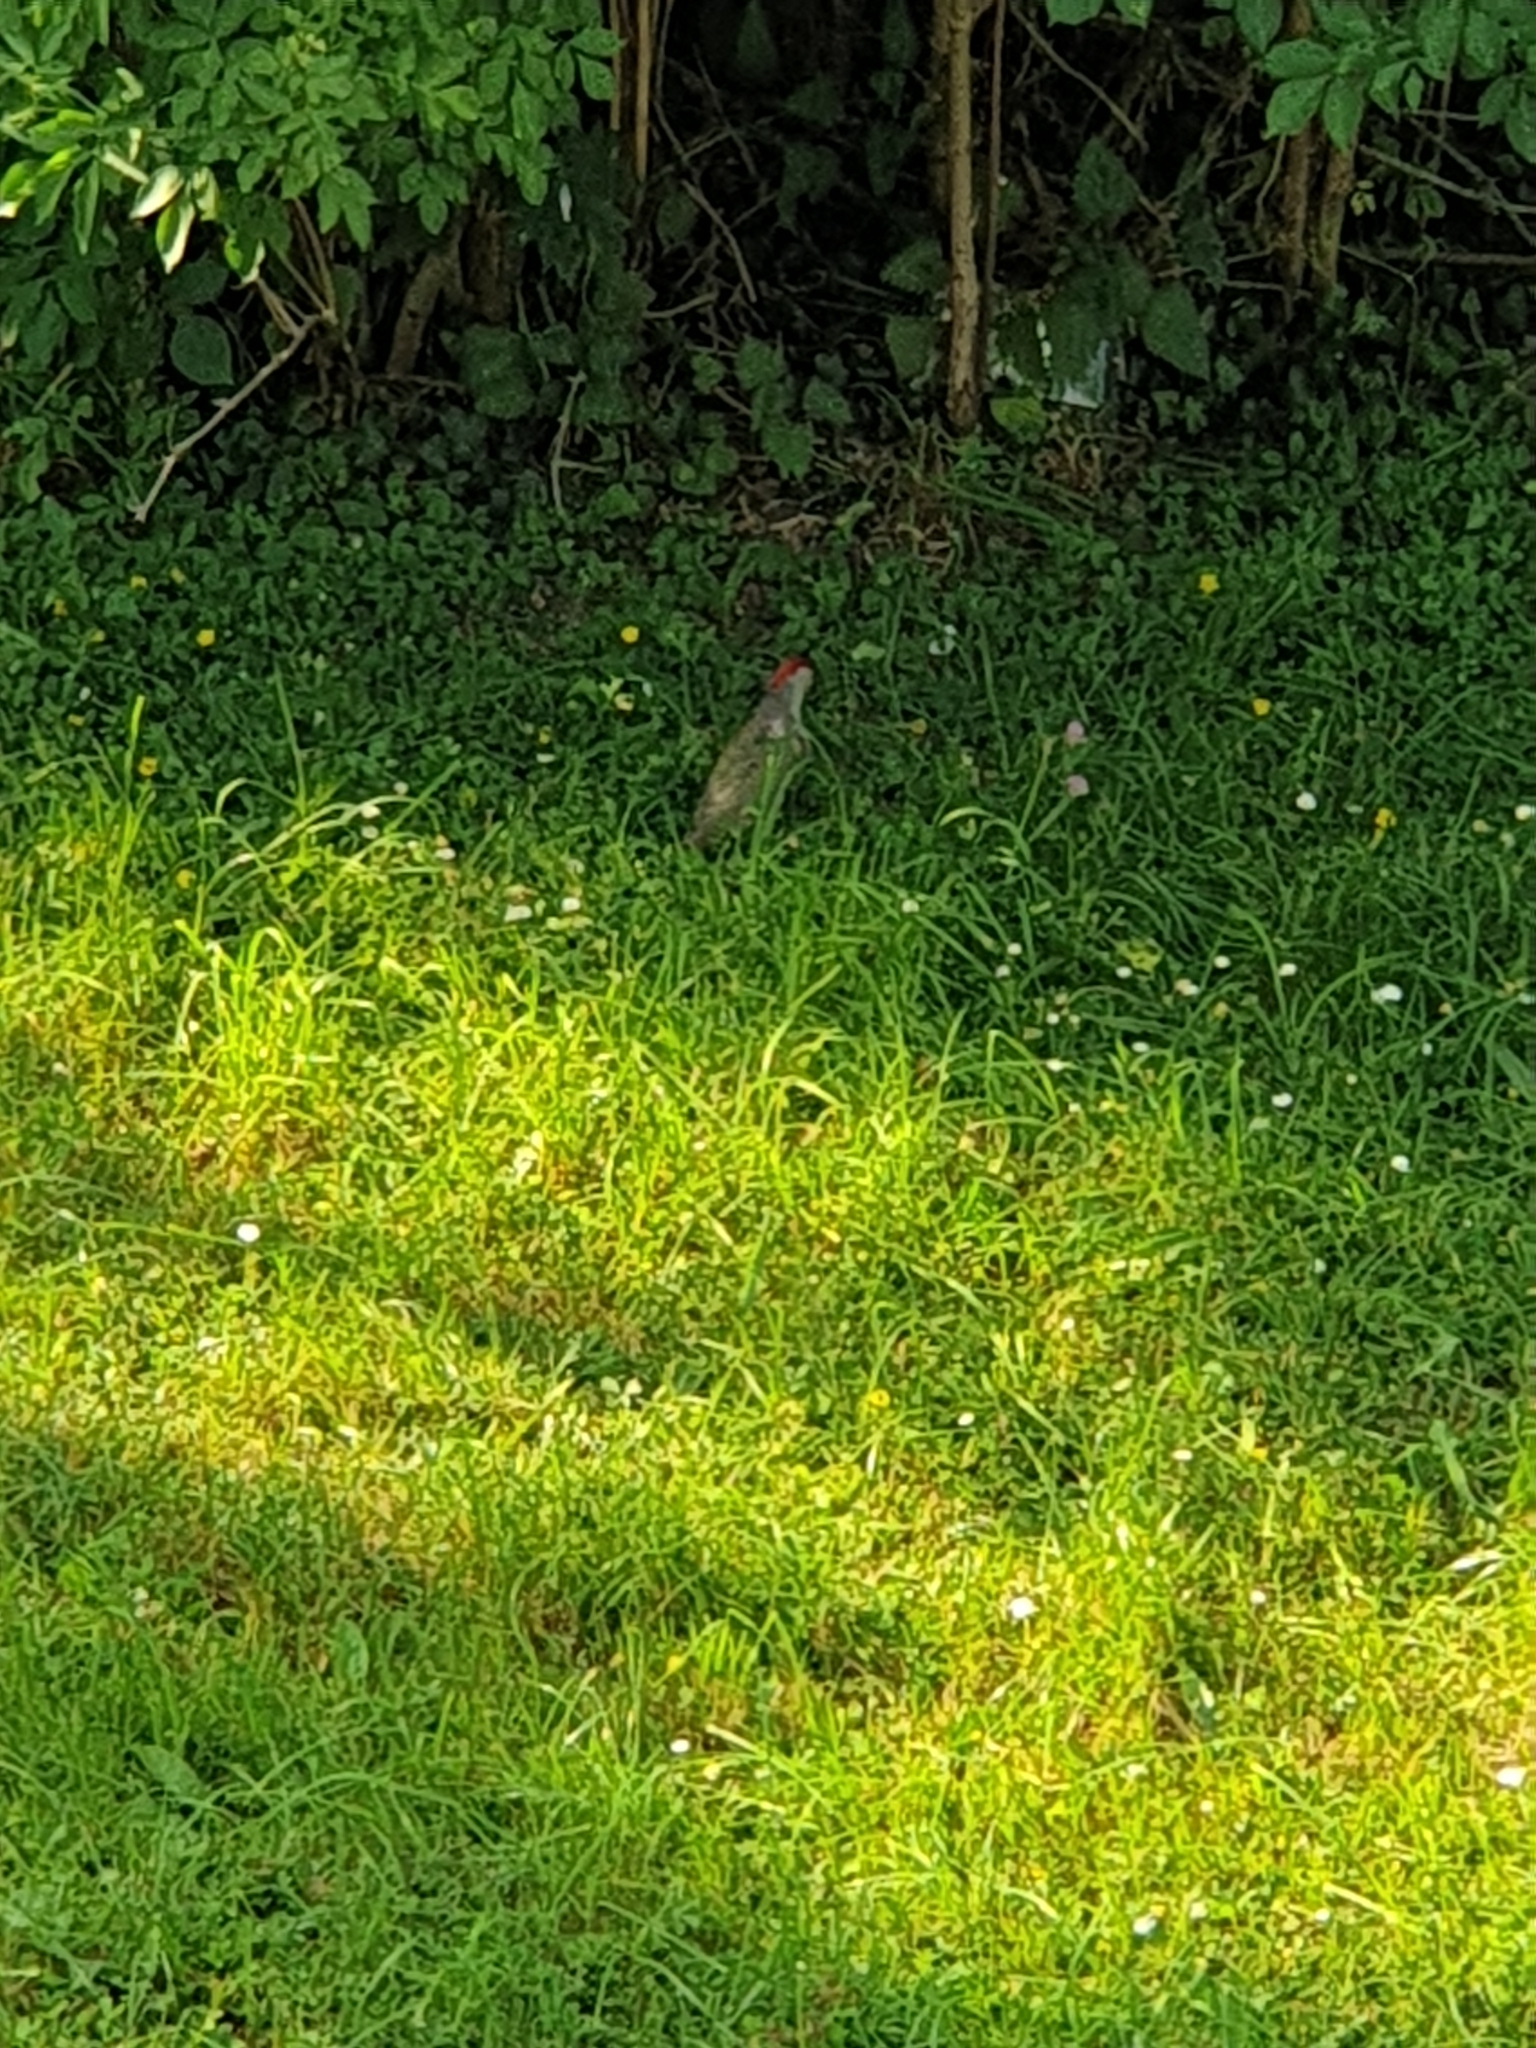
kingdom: Animalia
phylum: Chordata
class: Aves
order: Piciformes
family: Picidae
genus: Picus
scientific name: Picus viridis
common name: European green woodpecker
